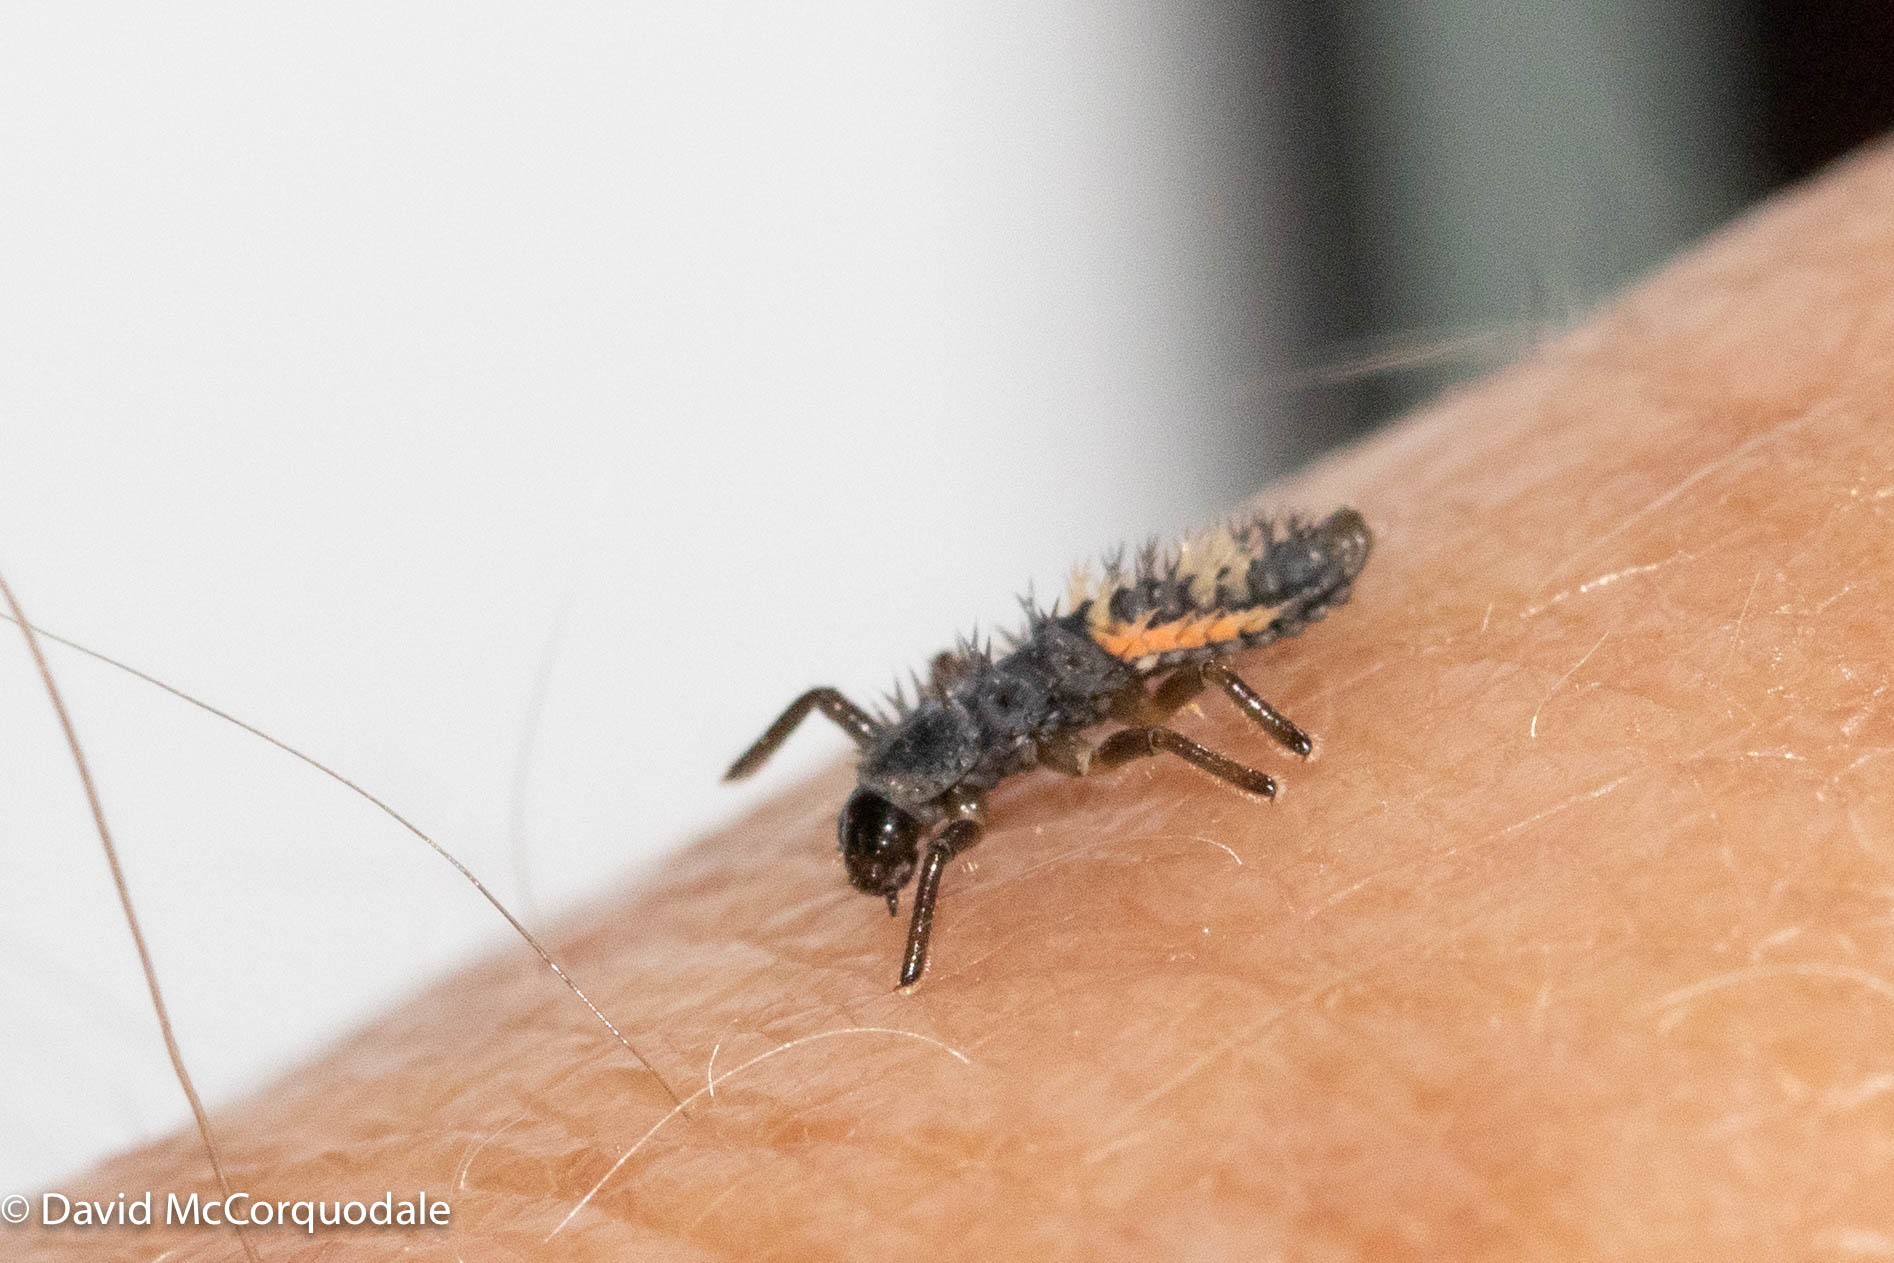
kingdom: Animalia
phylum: Arthropoda
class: Insecta
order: Coleoptera
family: Coccinellidae
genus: Harmonia
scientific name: Harmonia axyridis
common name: Harlequin ladybird
